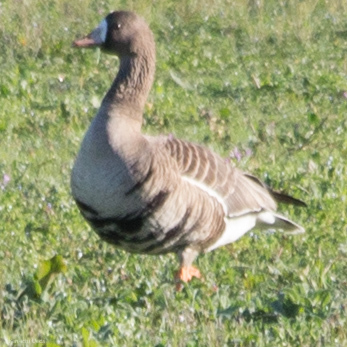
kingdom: Animalia
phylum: Chordata
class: Aves
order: Anseriformes
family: Anatidae
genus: Anser
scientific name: Anser albifrons
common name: Greater white-fronted goose
